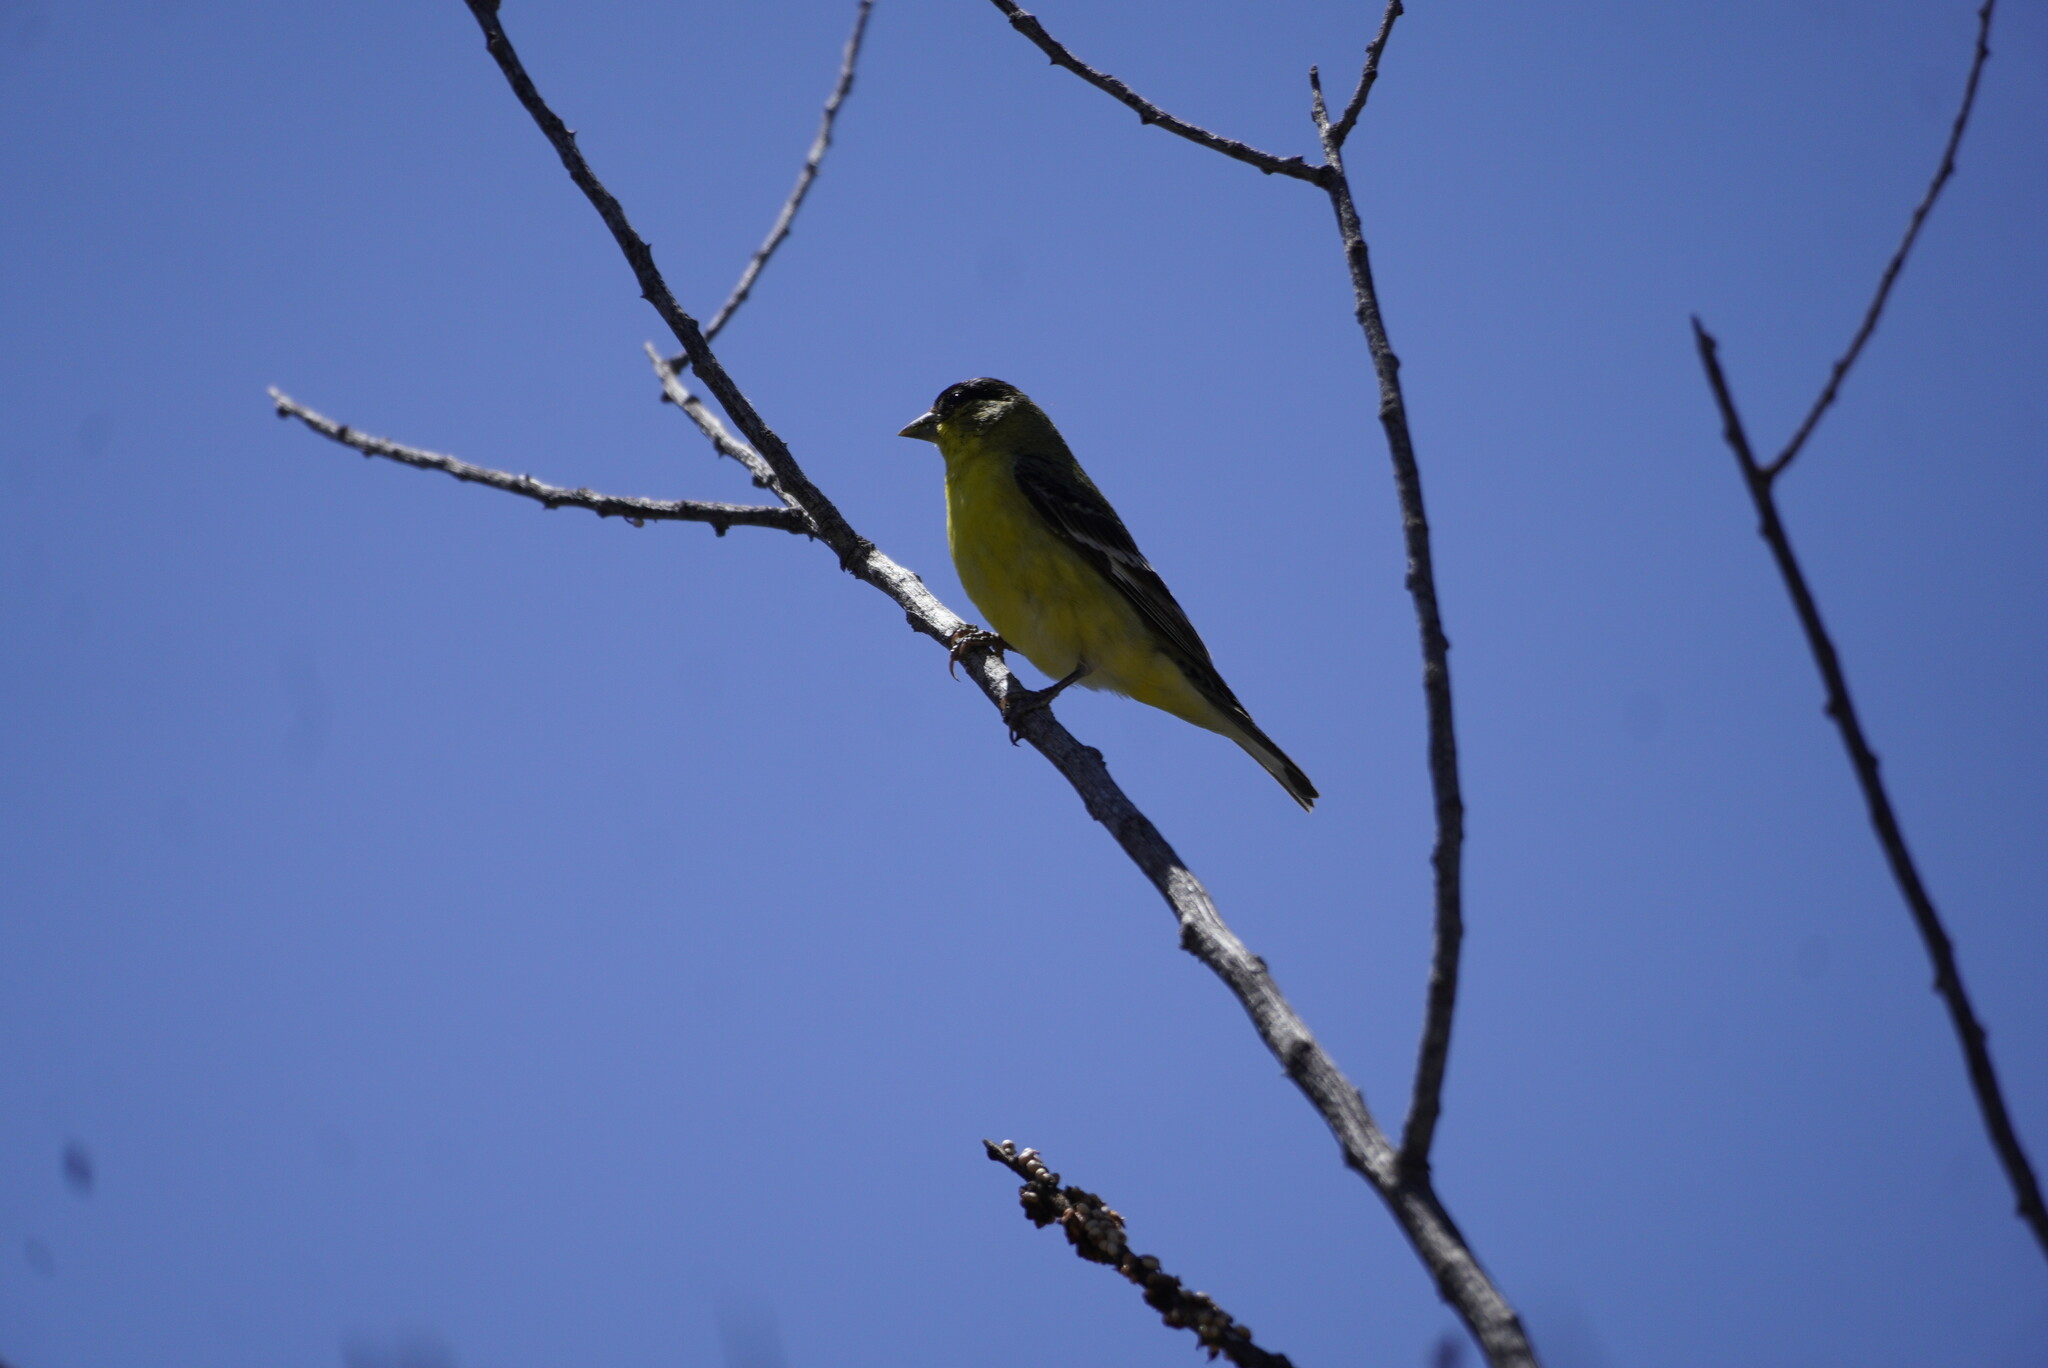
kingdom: Animalia
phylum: Chordata
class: Aves
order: Passeriformes
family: Fringillidae
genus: Spinus
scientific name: Spinus psaltria
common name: Lesser goldfinch
